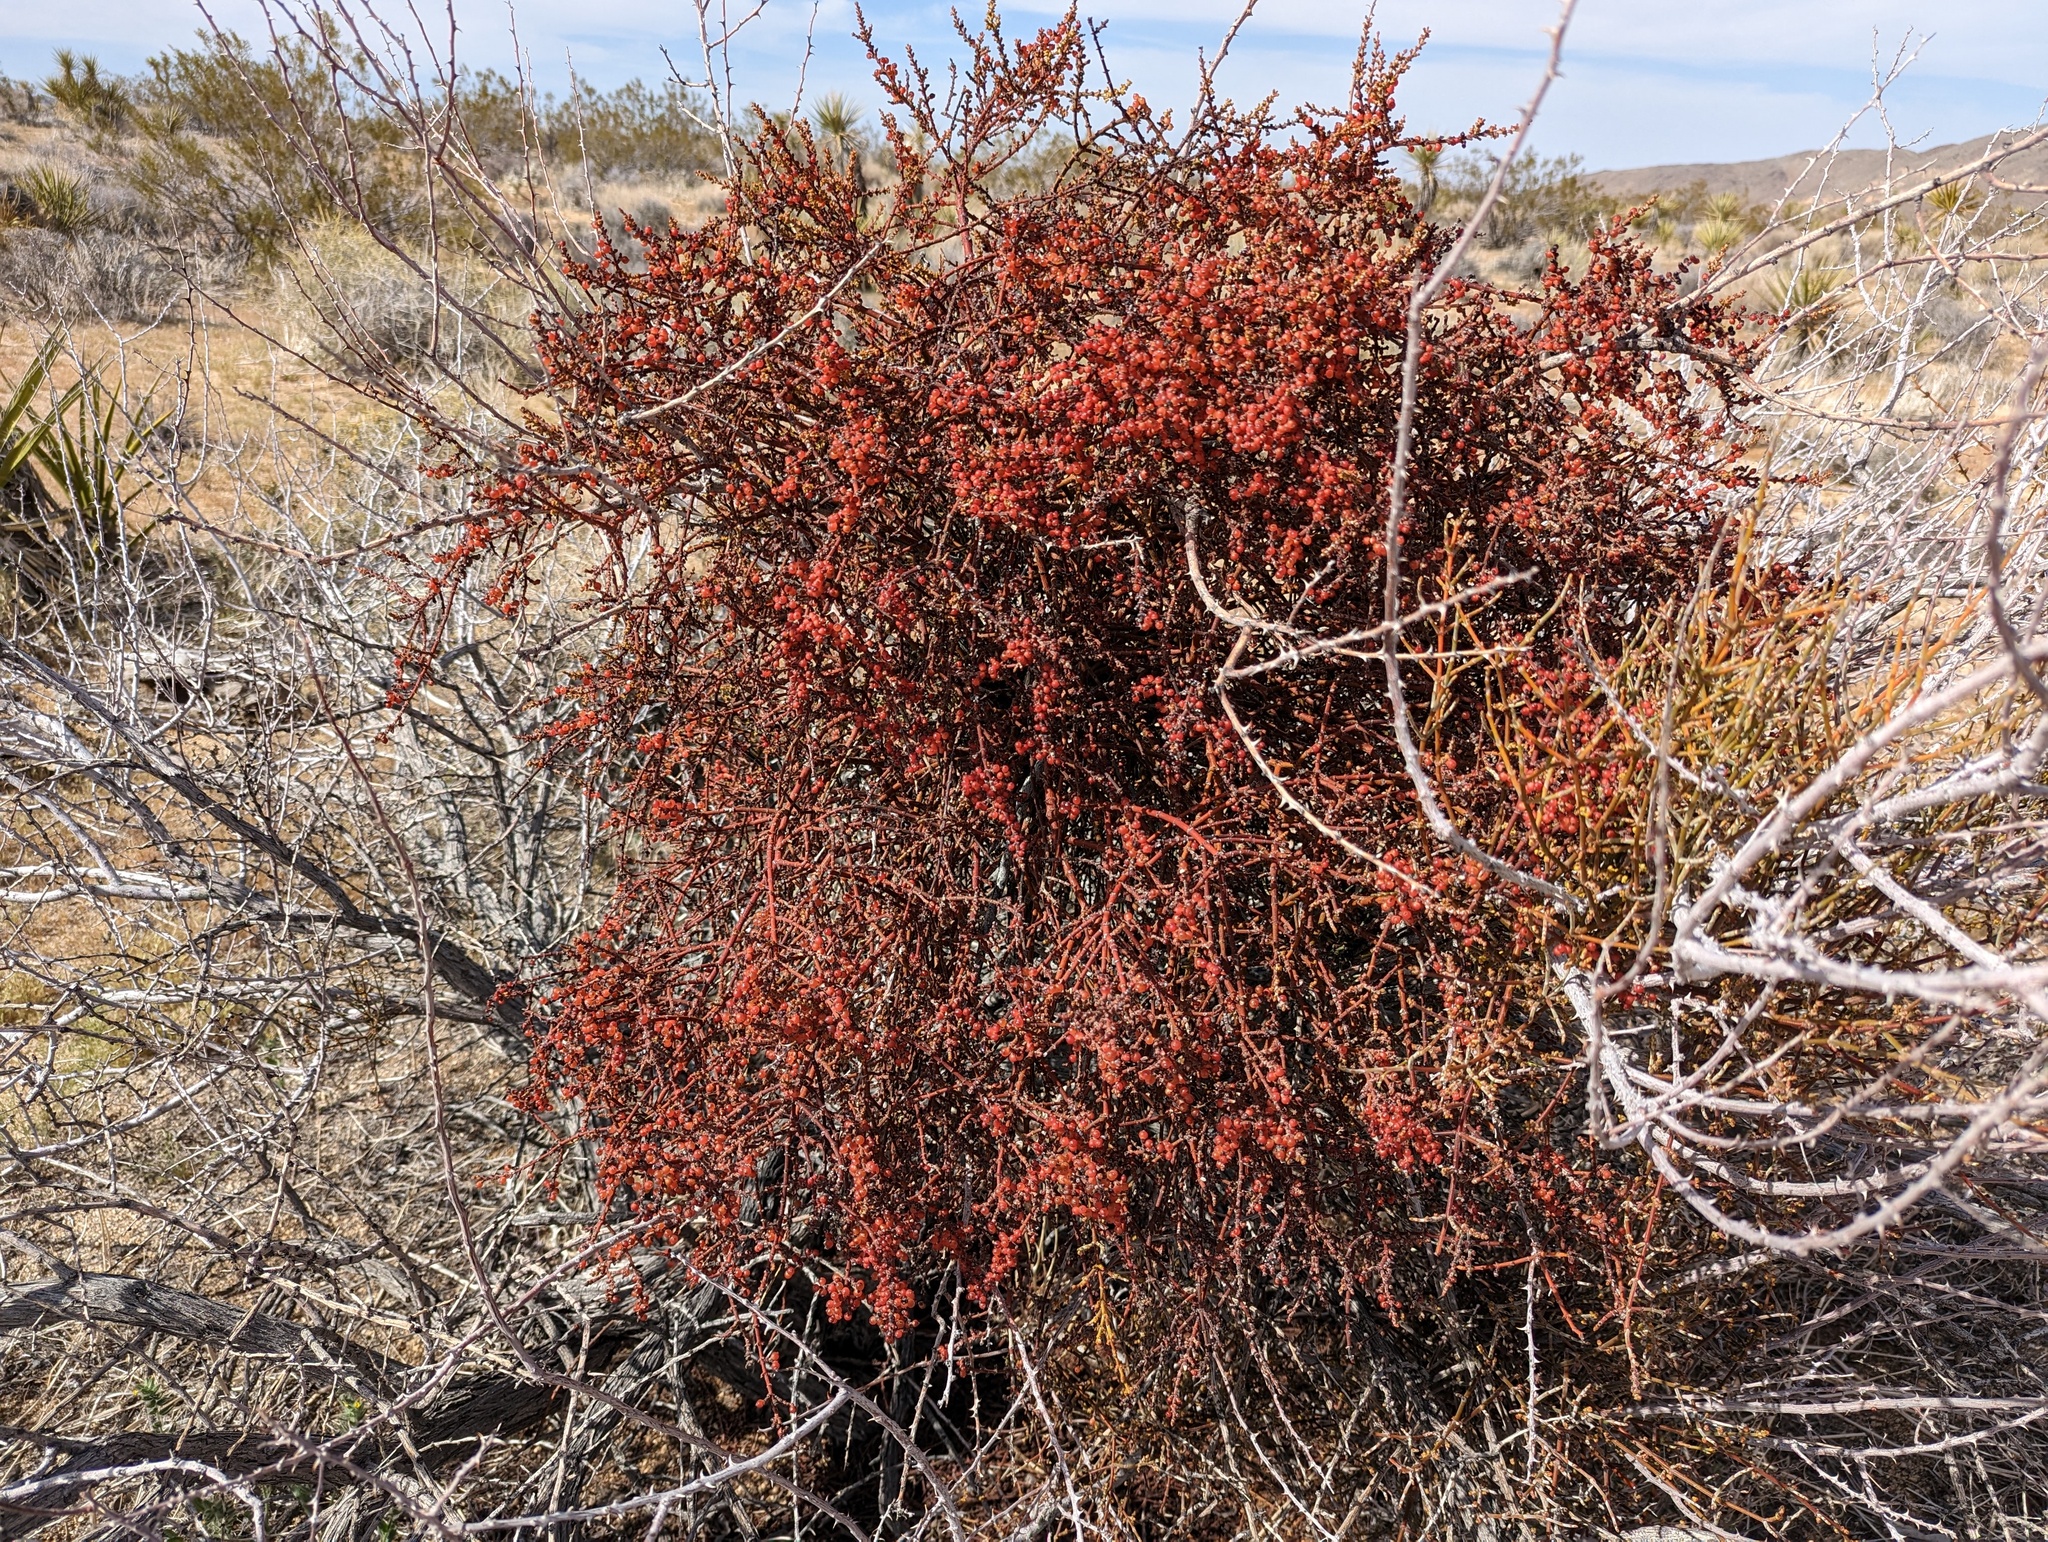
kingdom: Plantae
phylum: Tracheophyta
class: Magnoliopsida
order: Santalales
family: Viscaceae
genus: Phoradendron
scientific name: Phoradendron californicum
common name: Acacia mistletoe
